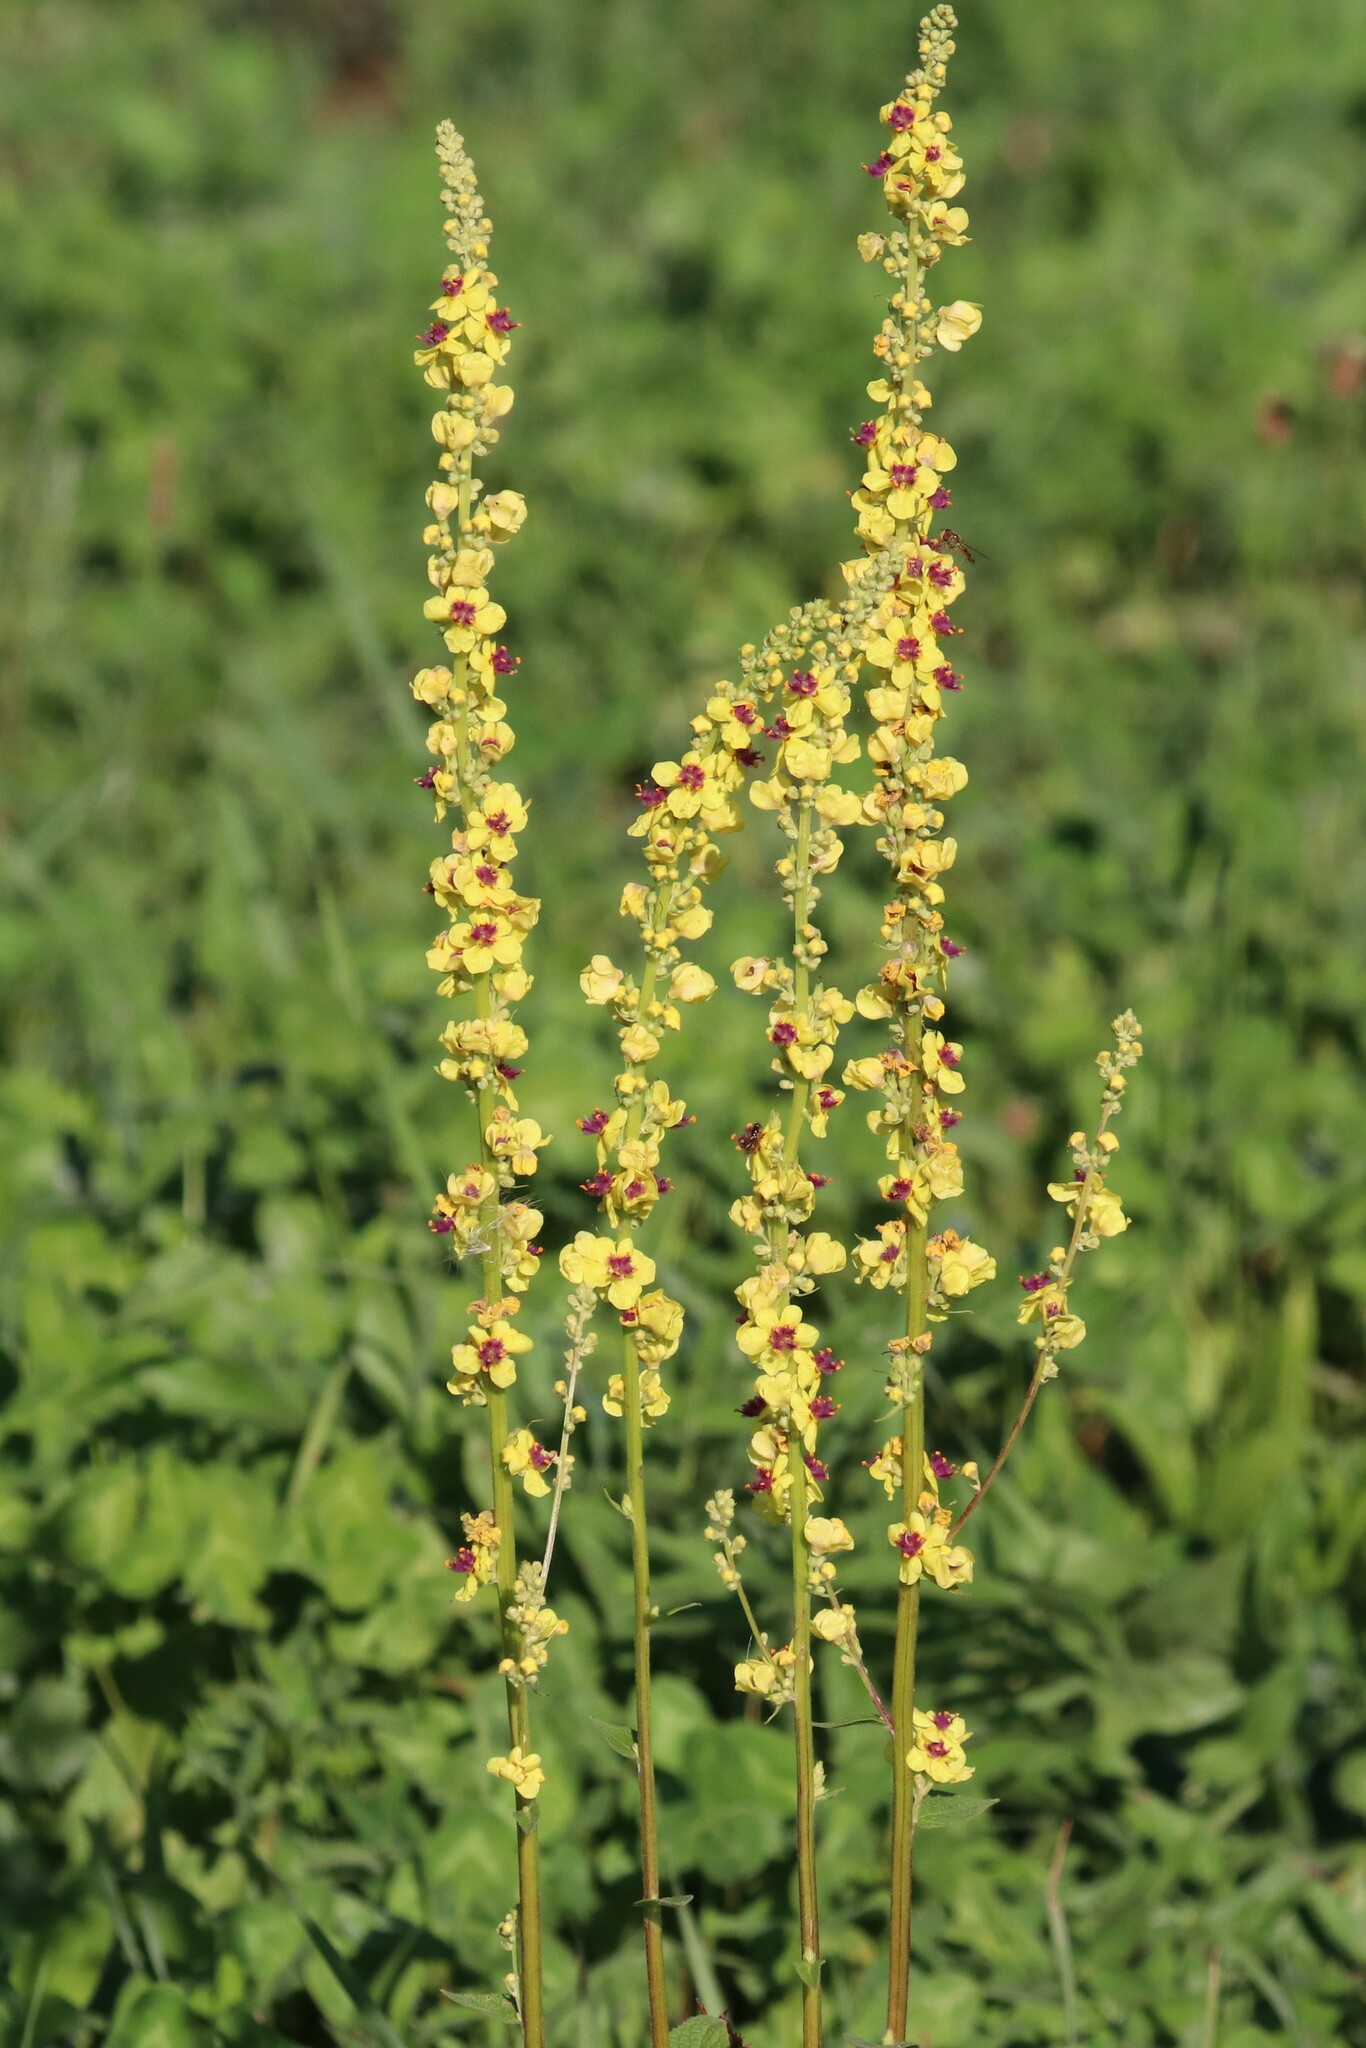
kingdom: Plantae
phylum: Tracheophyta
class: Magnoliopsida
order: Lamiales
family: Scrophulariaceae
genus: Verbascum
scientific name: Verbascum nigrum
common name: Dark mullein
